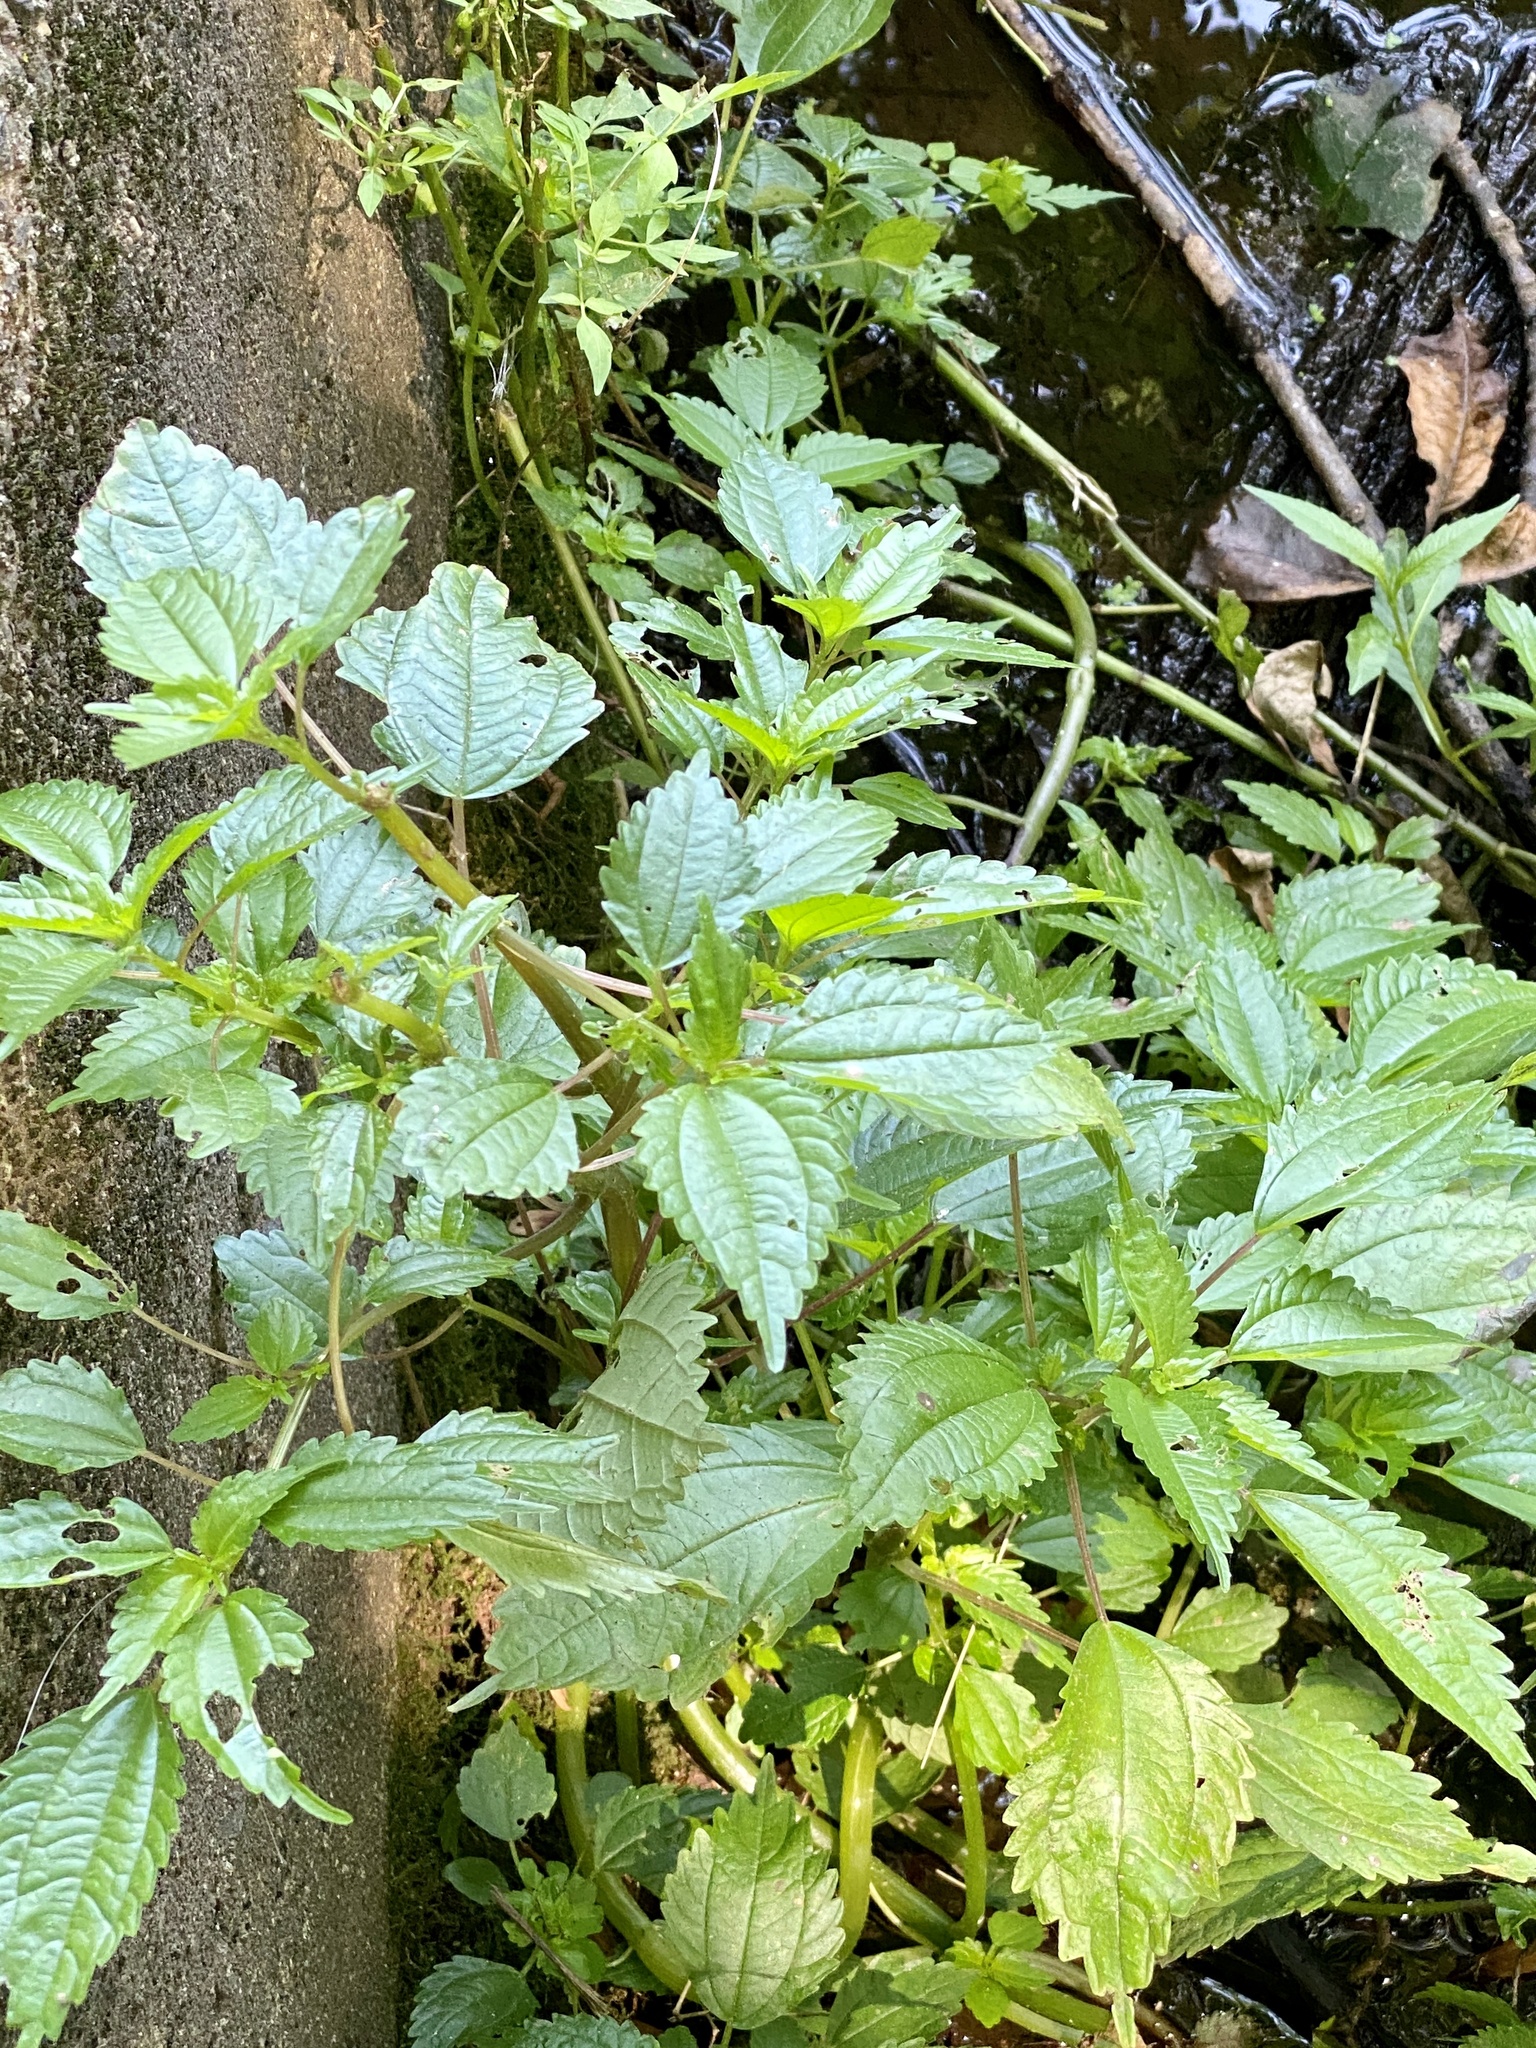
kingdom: Plantae
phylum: Tracheophyta
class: Magnoliopsida
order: Rosales
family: Urticaceae
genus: Pilea
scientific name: Pilea pumila
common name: Clearweed
